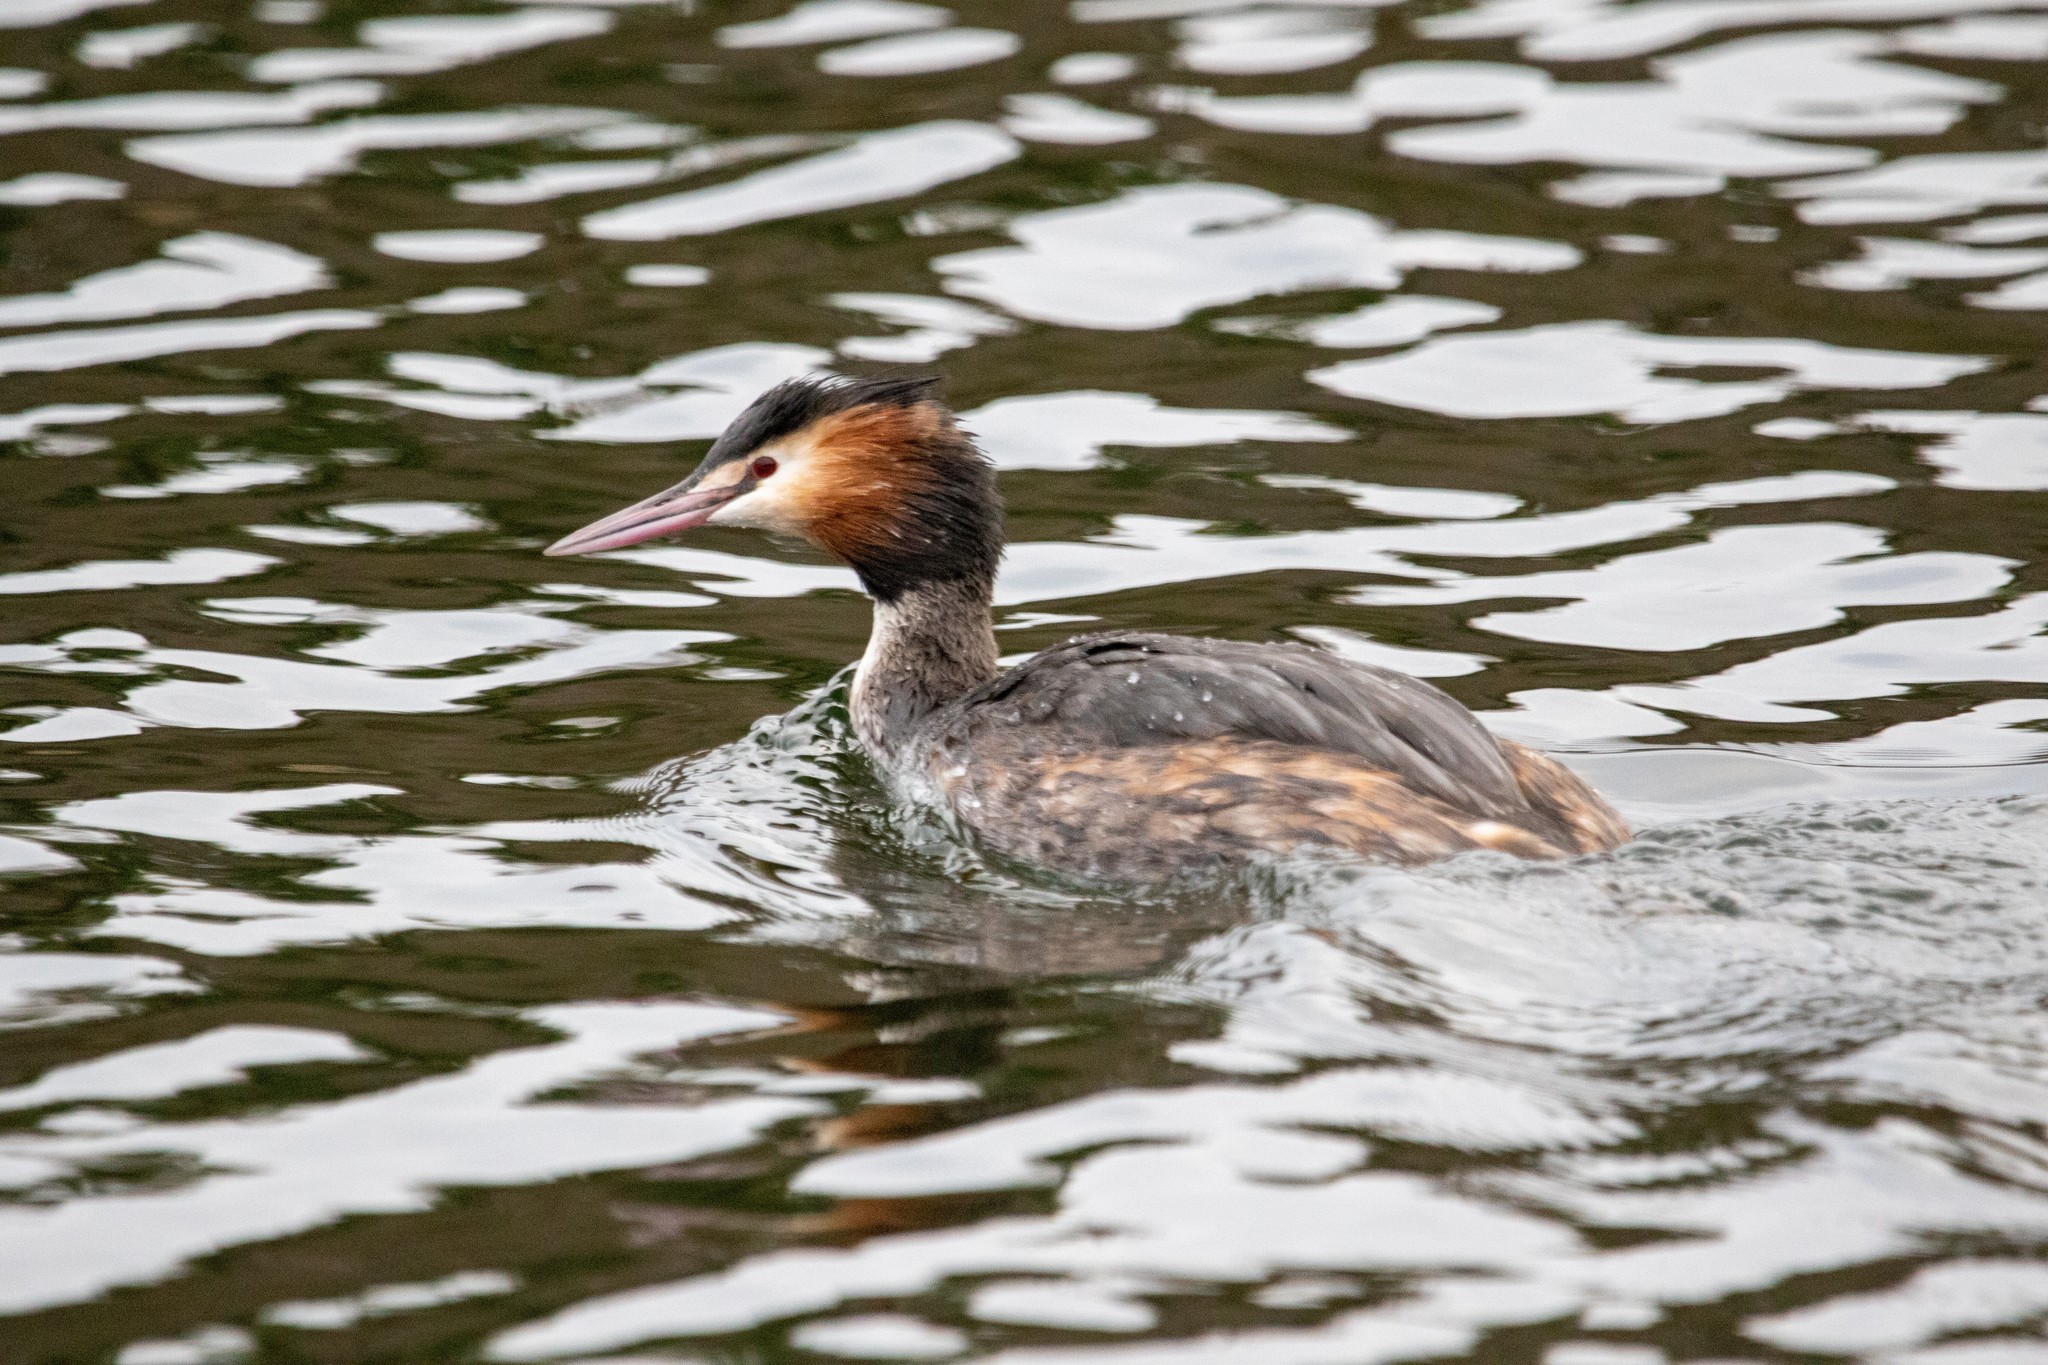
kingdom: Animalia
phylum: Chordata
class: Aves
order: Podicipediformes
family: Podicipedidae
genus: Podiceps
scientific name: Podiceps cristatus
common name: Great crested grebe
